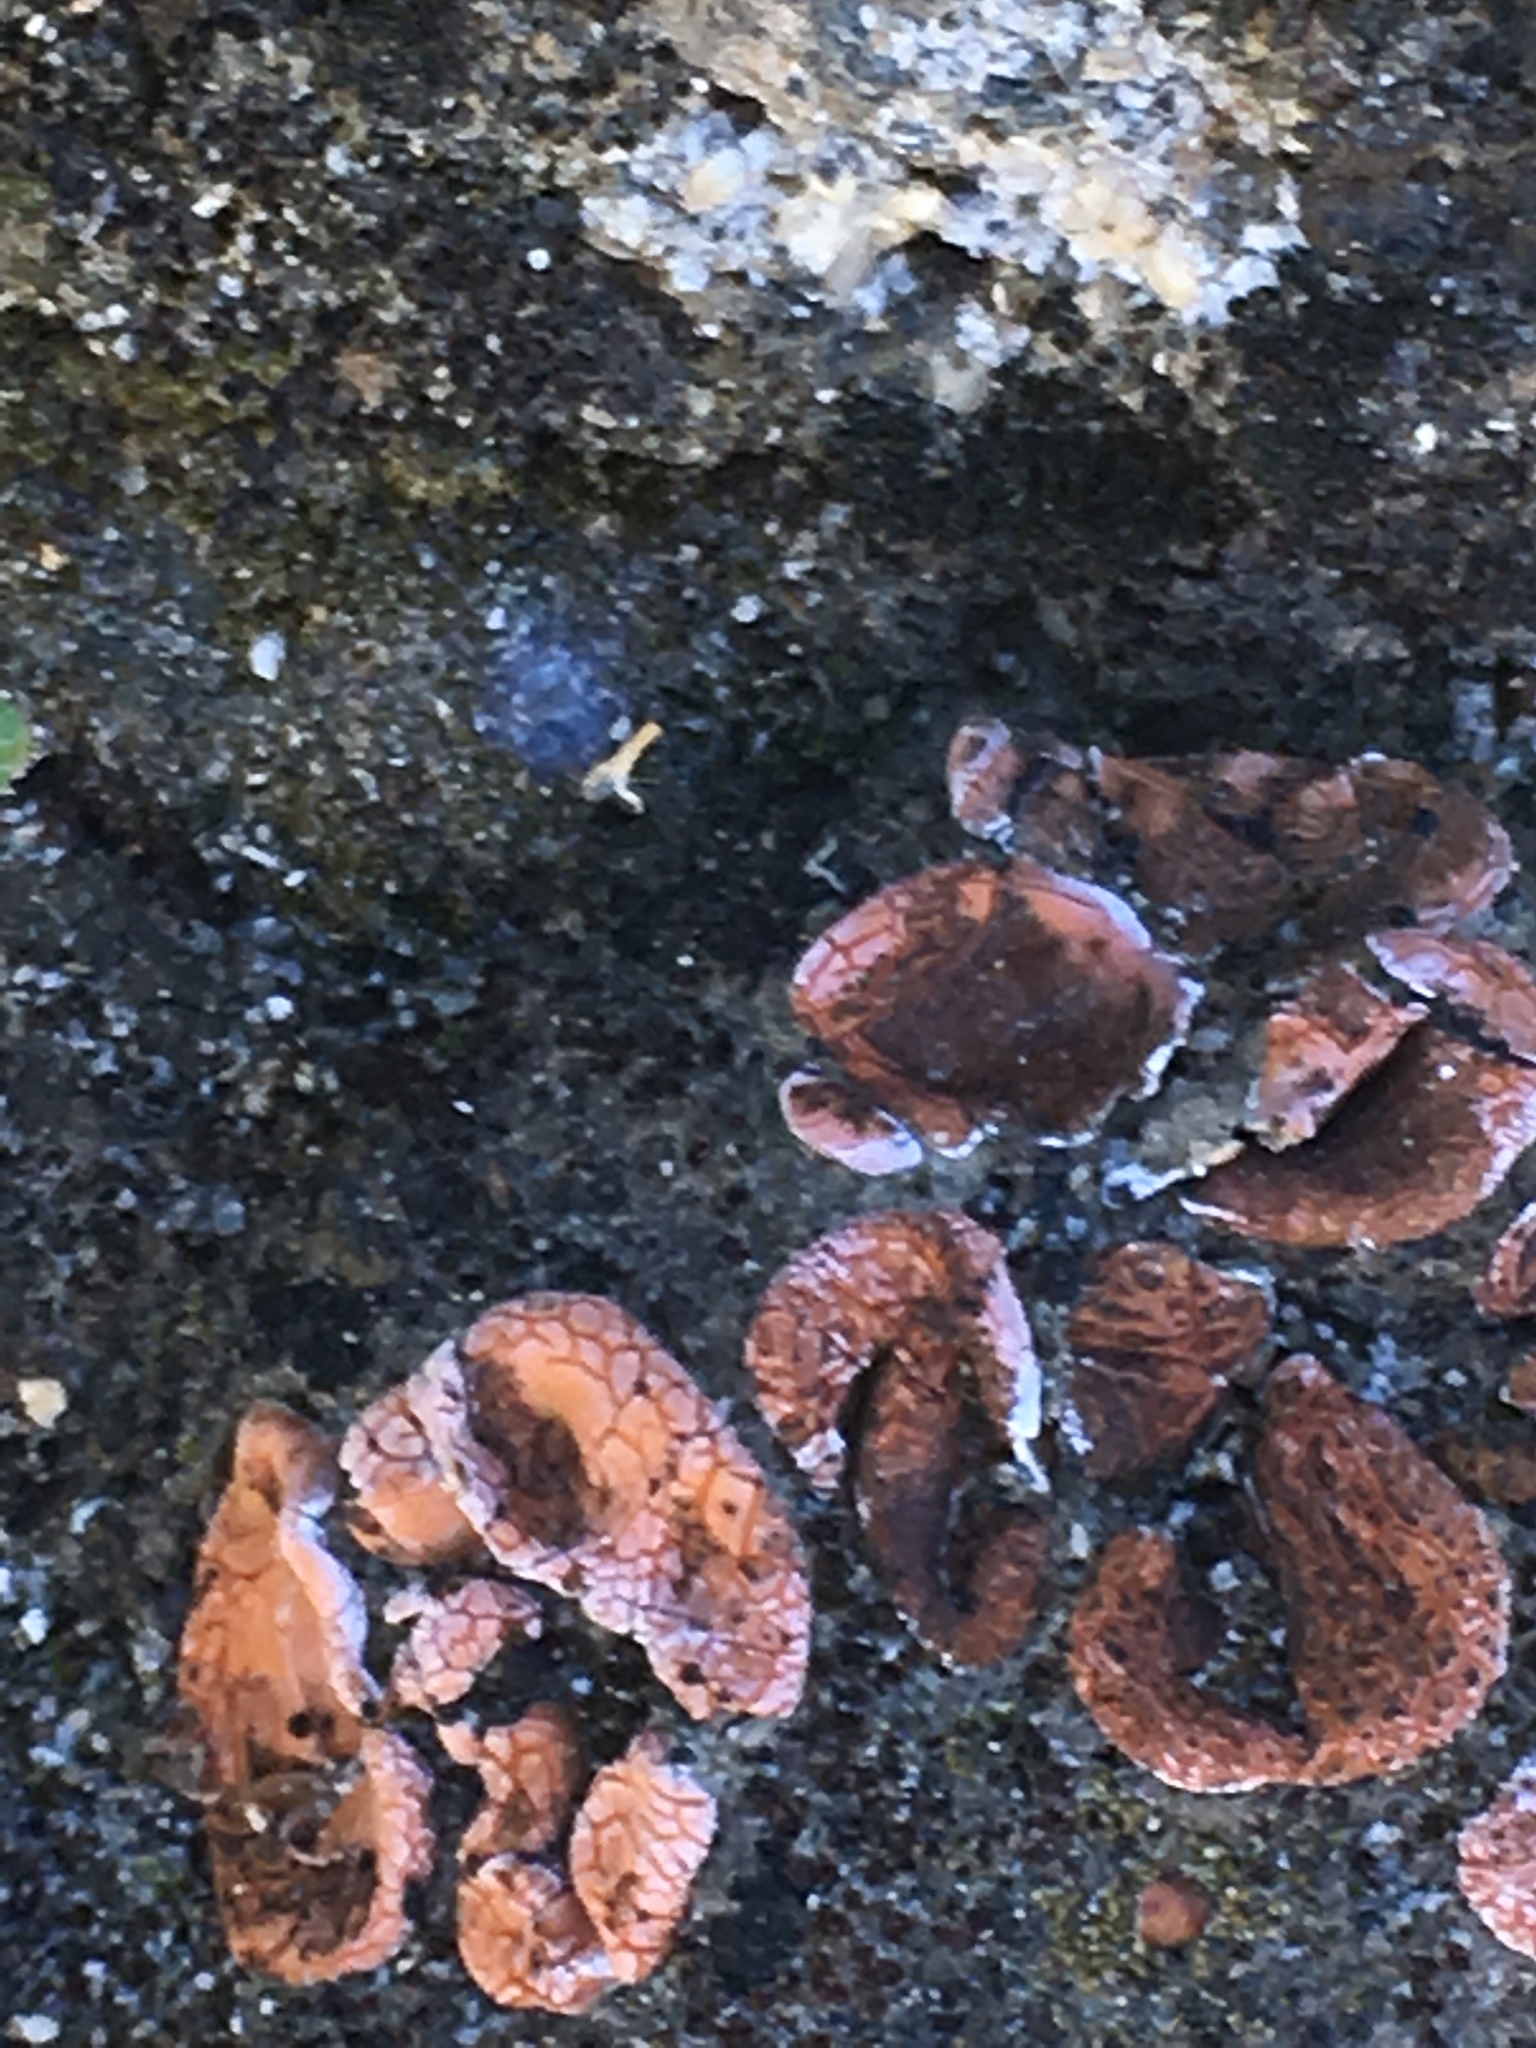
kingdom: Fungi
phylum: Ascomycota
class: Lecanoromycetes
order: Lecanorales
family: Psoraceae
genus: Psora
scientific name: Psora decipiens
